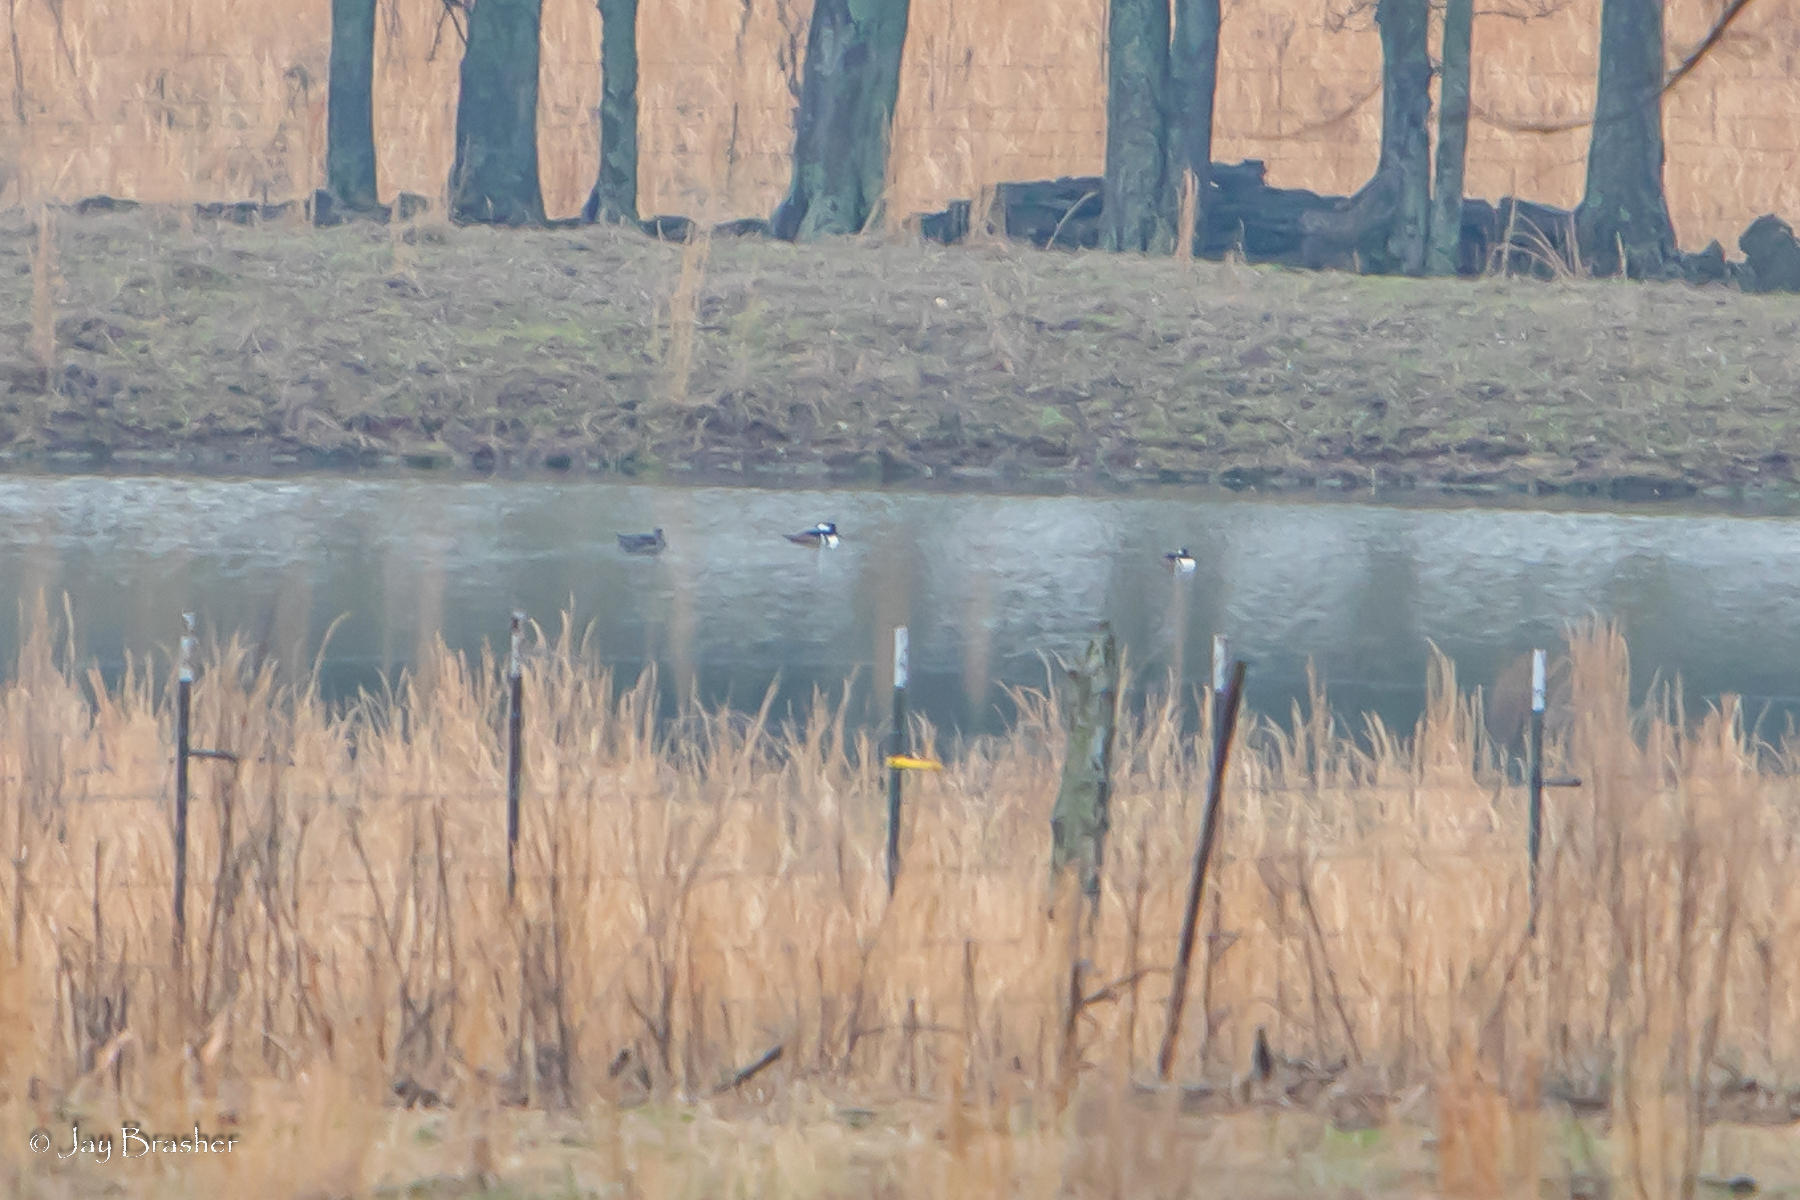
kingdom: Animalia
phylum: Chordata
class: Aves
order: Anseriformes
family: Anatidae
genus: Lophodytes
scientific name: Lophodytes cucullatus
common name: Hooded merganser
